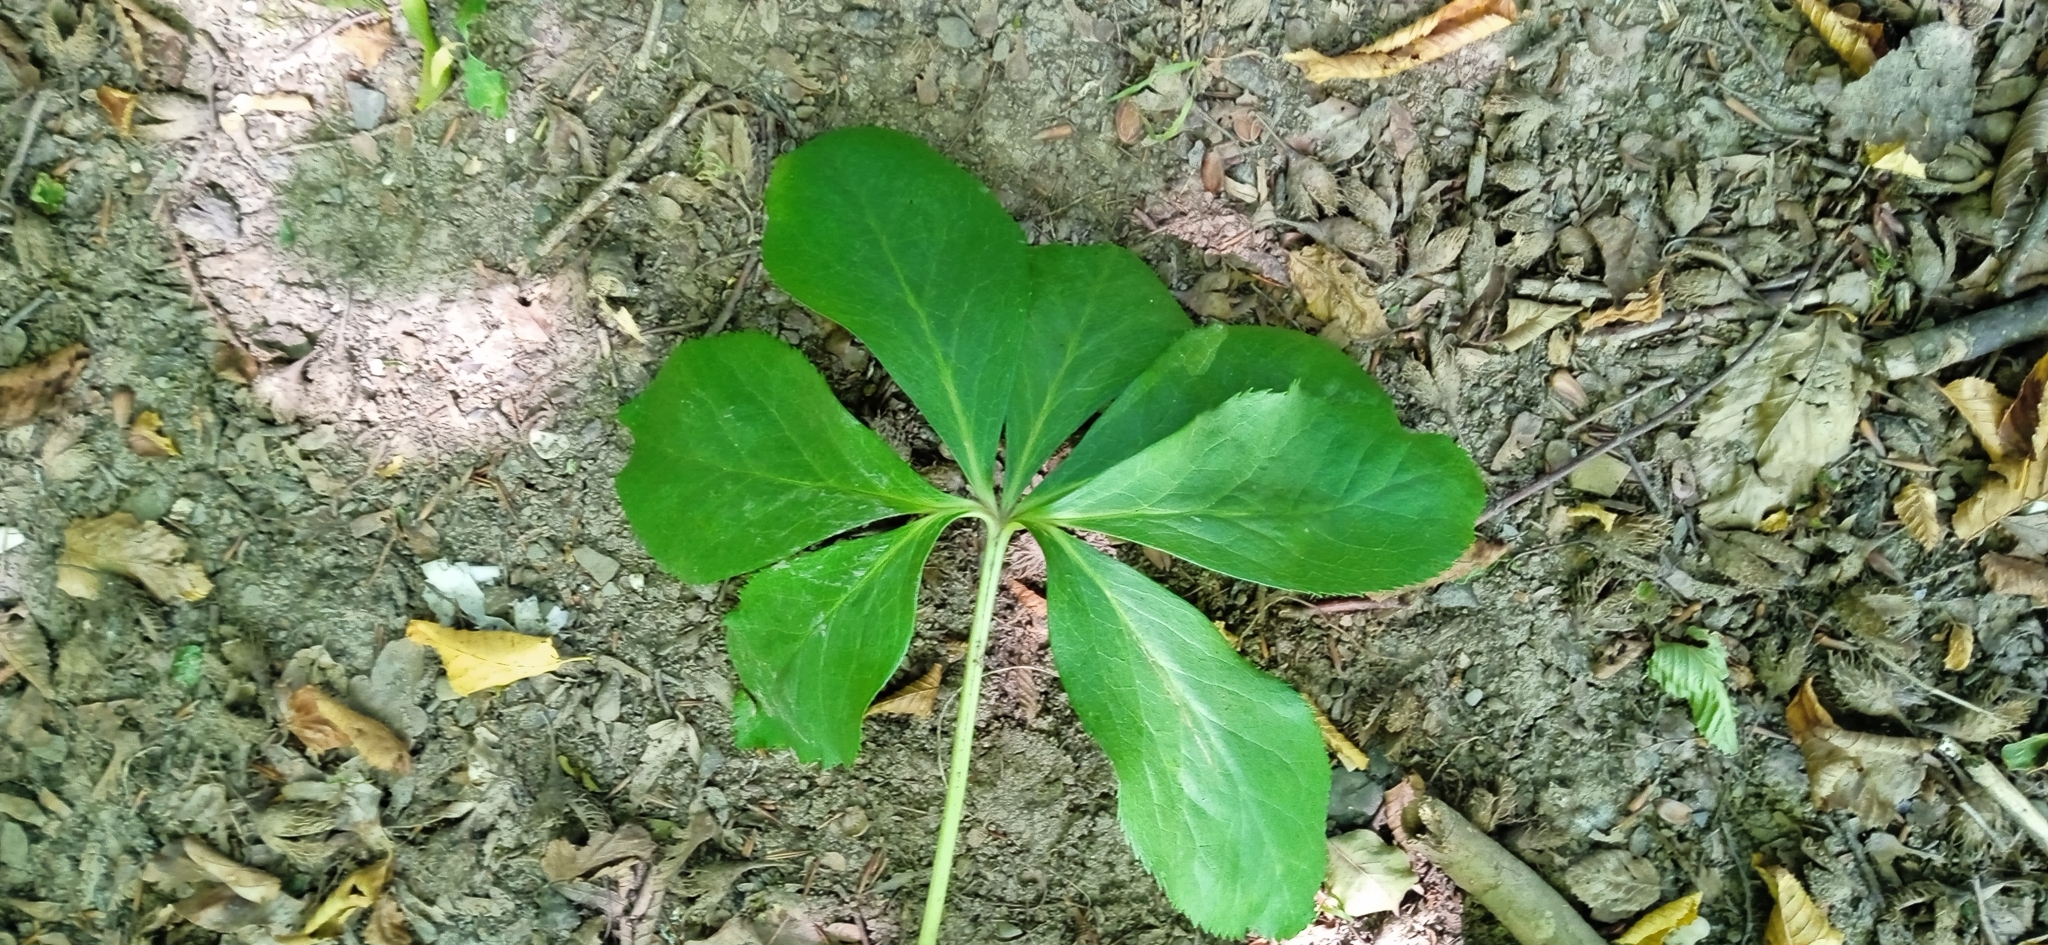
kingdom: Plantae
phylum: Tracheophyta
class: Magnoliopsida
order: Ranunculales
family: Ranunculaceae
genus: Helleborus
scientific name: Helleborus orientalis
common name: Lenten-rose
